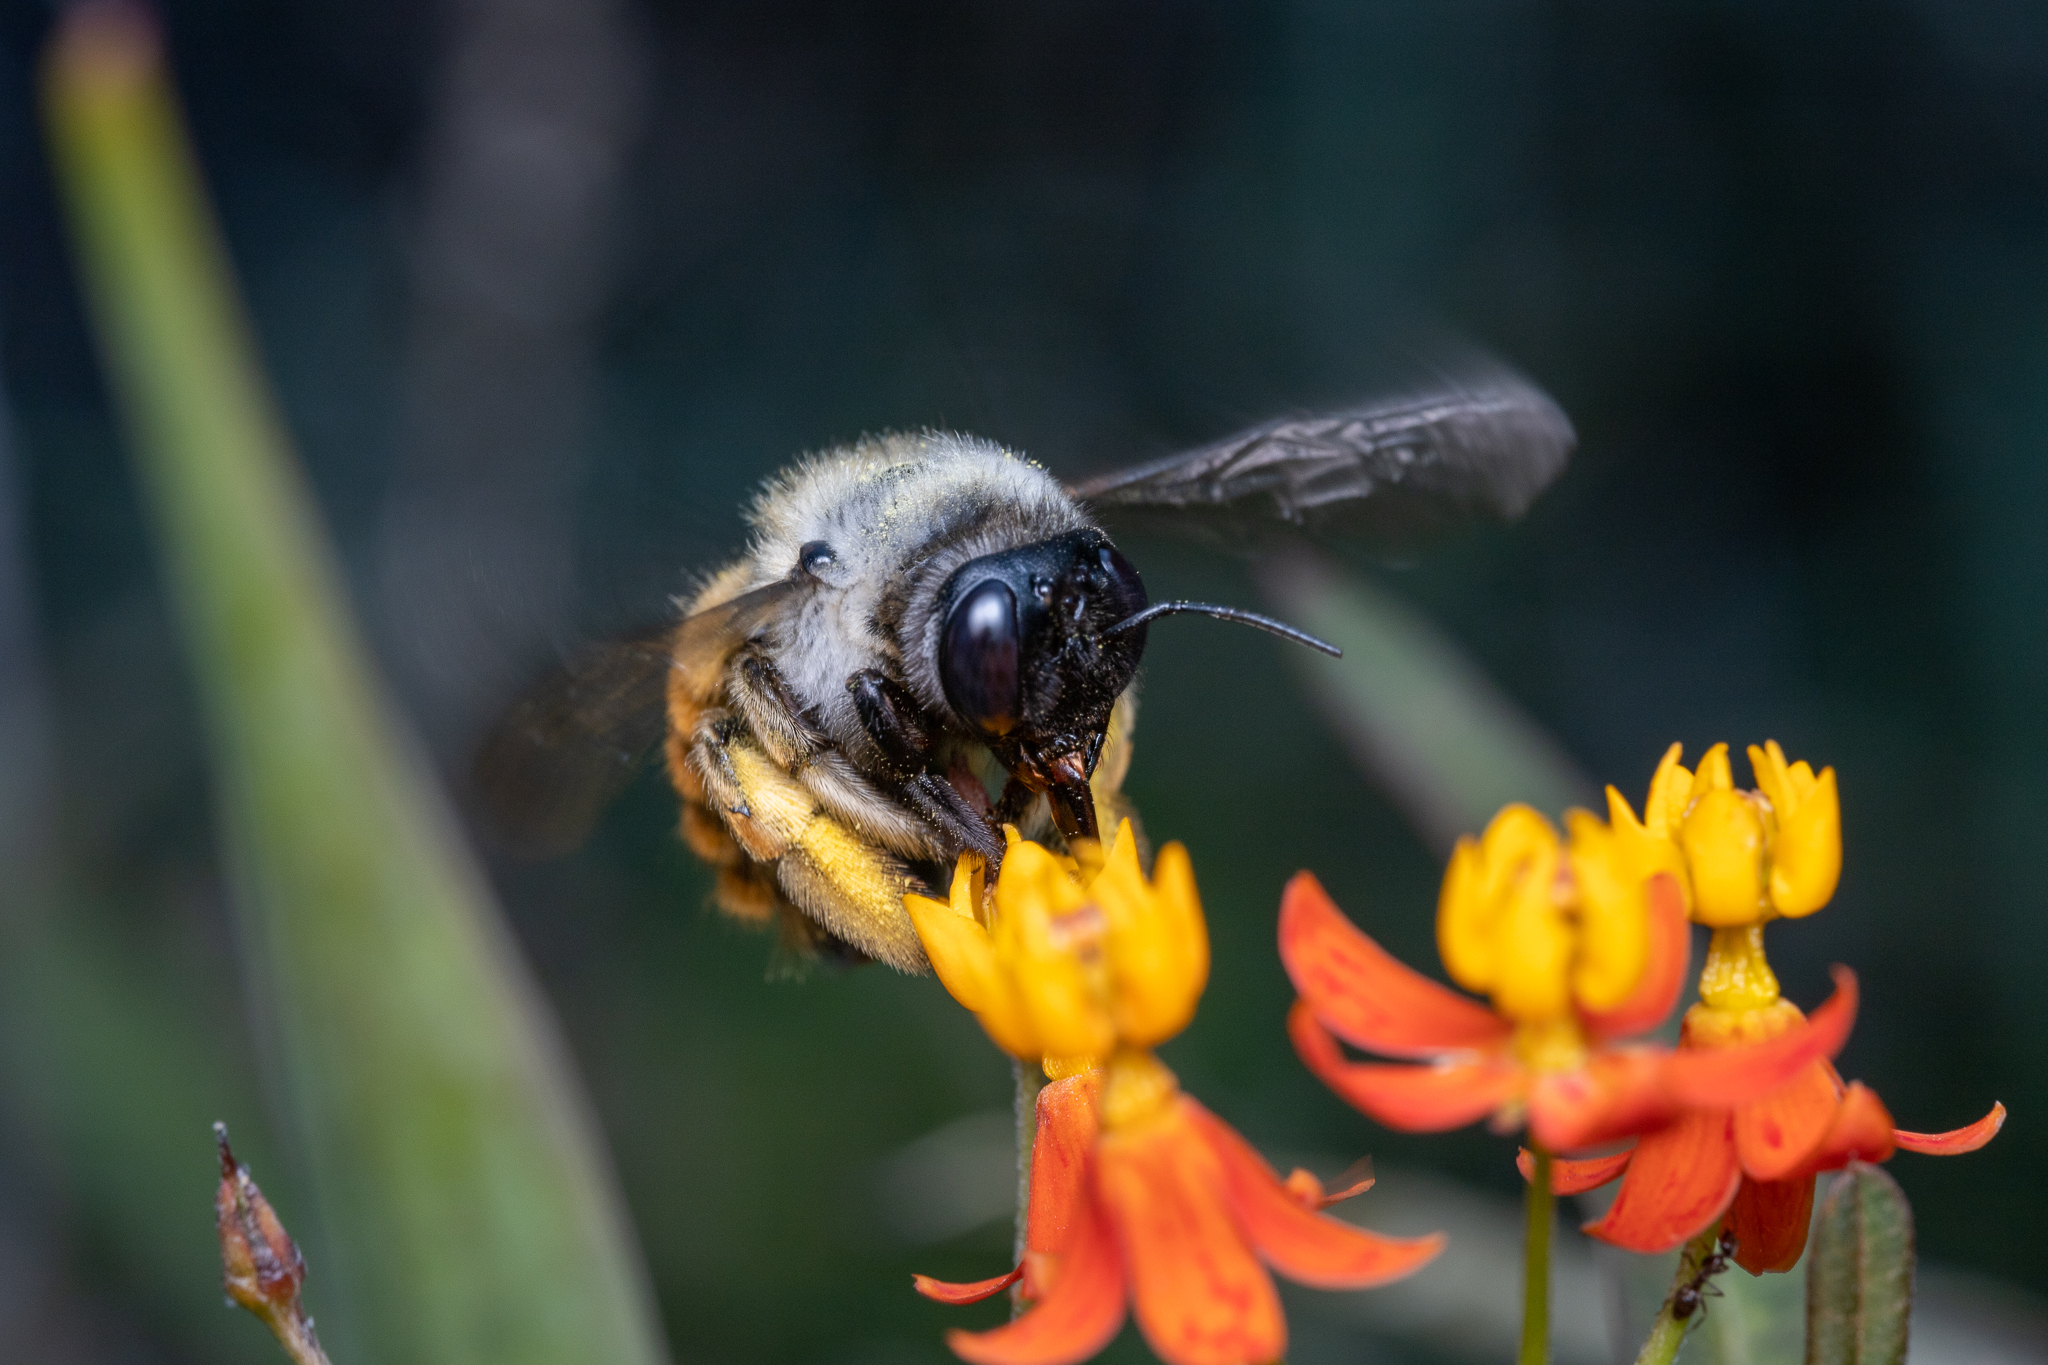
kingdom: Animalia
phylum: Arthropoda
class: Insecta
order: Hymenoptera
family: Apidae
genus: Xylocopa
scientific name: Xylocopa tabaniformis
